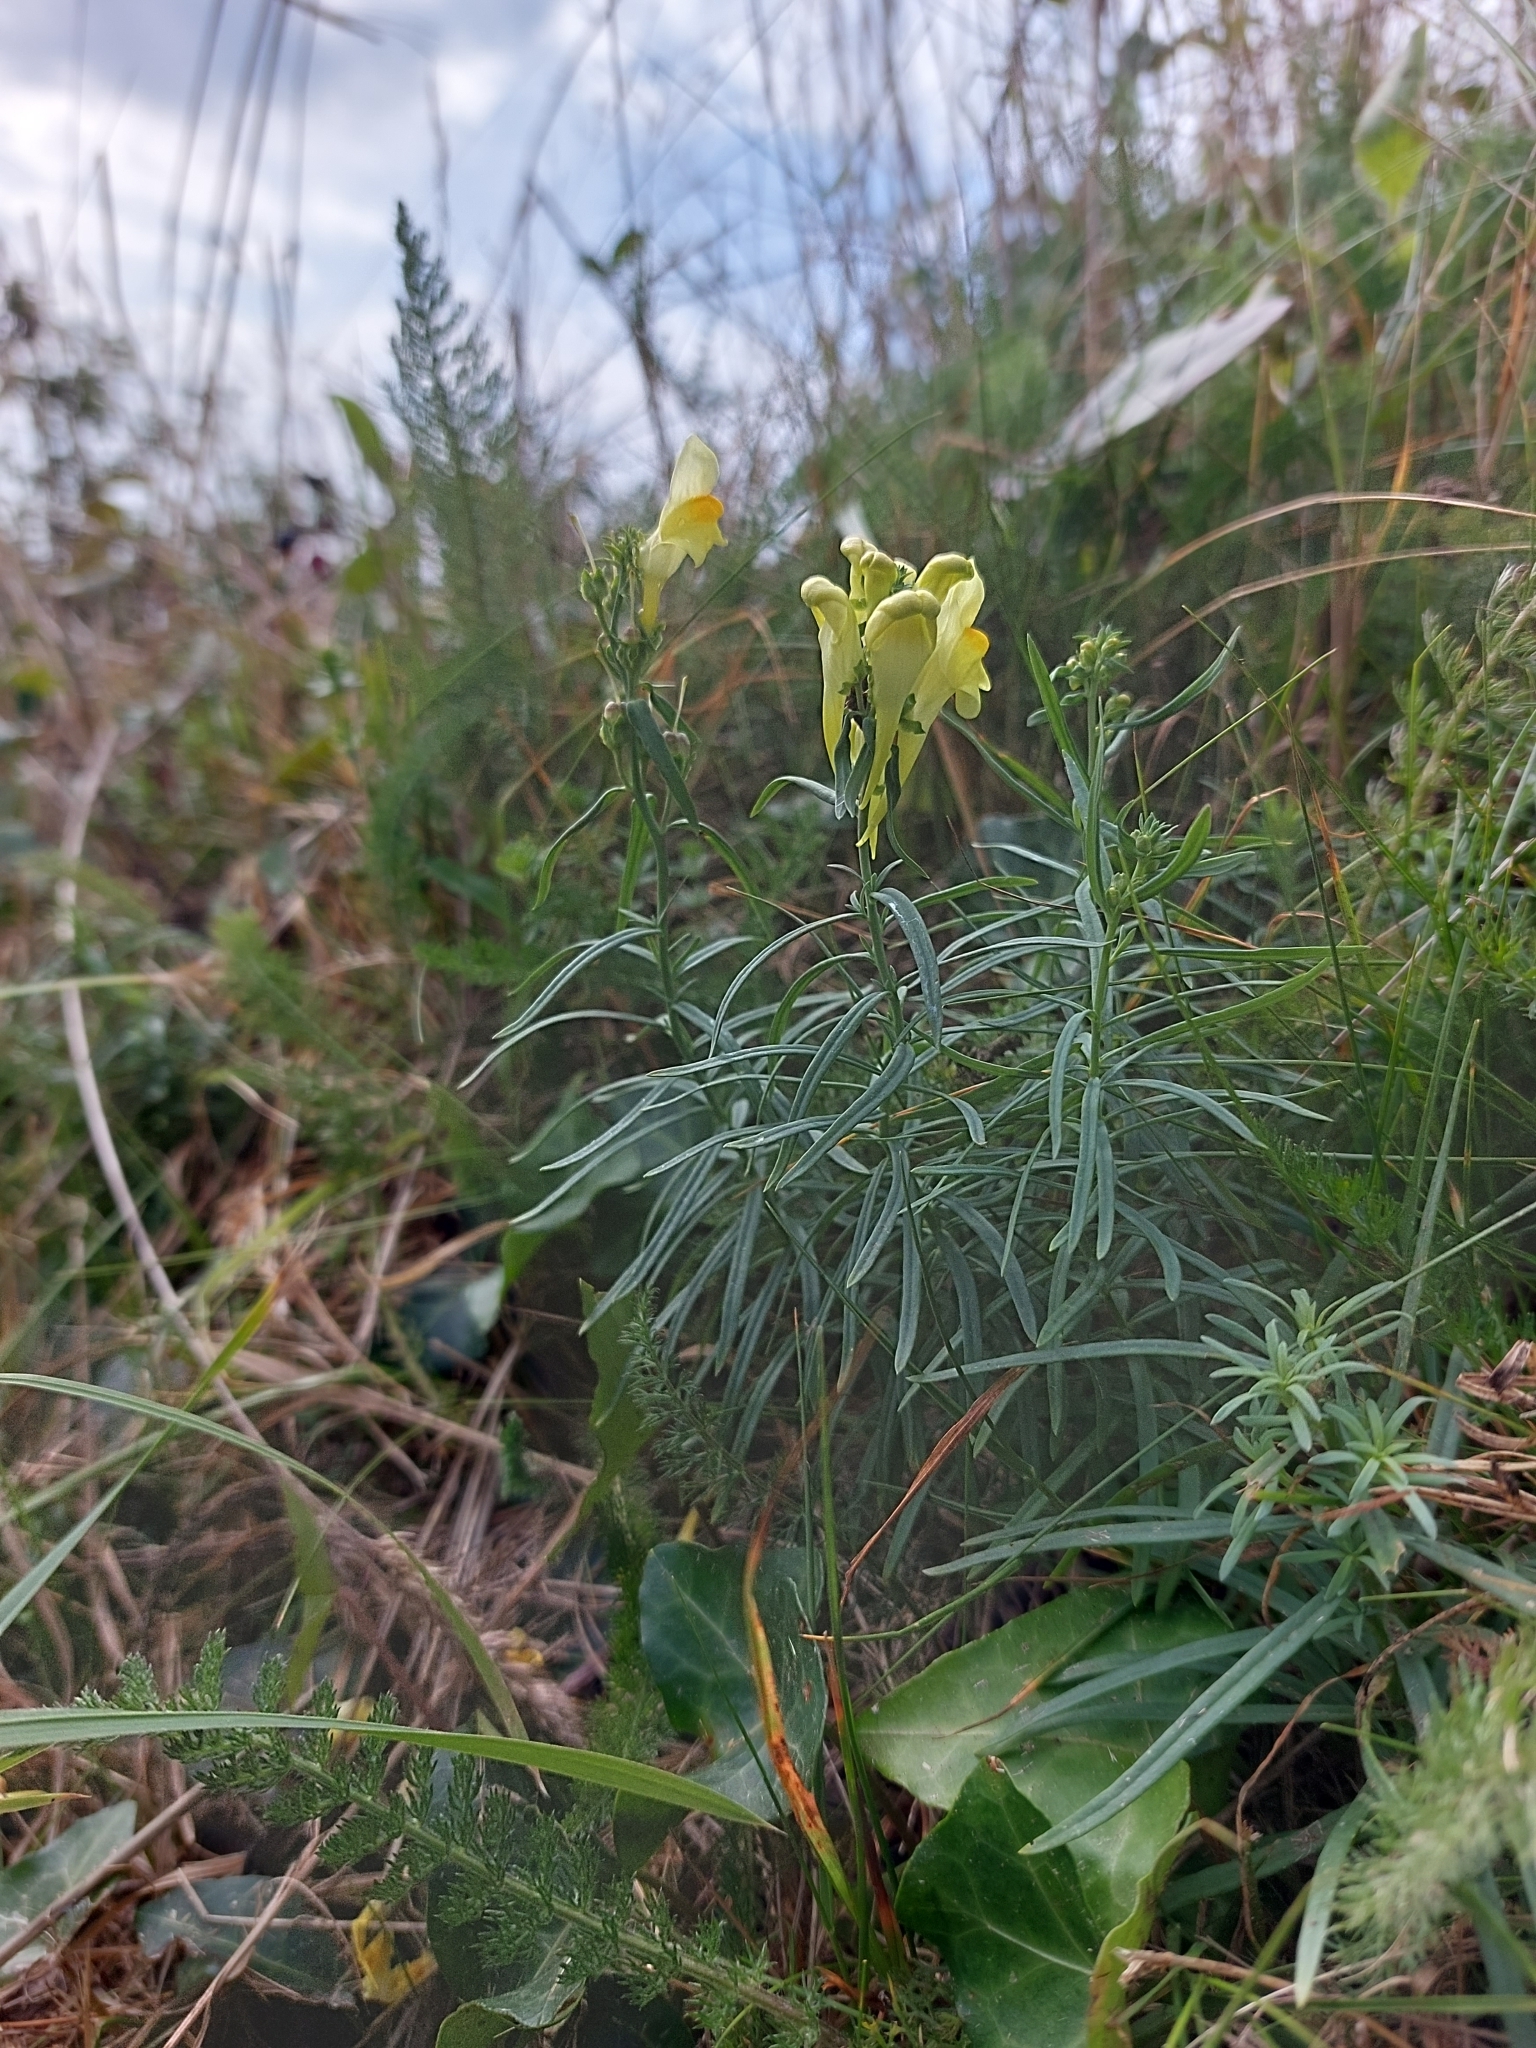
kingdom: Plantae
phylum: Tracheophyta
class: Magnoliopsida
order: Lamiales
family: Plantaginaceae
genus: Linaria
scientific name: Linaria vulgaris
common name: Butter and eggs
